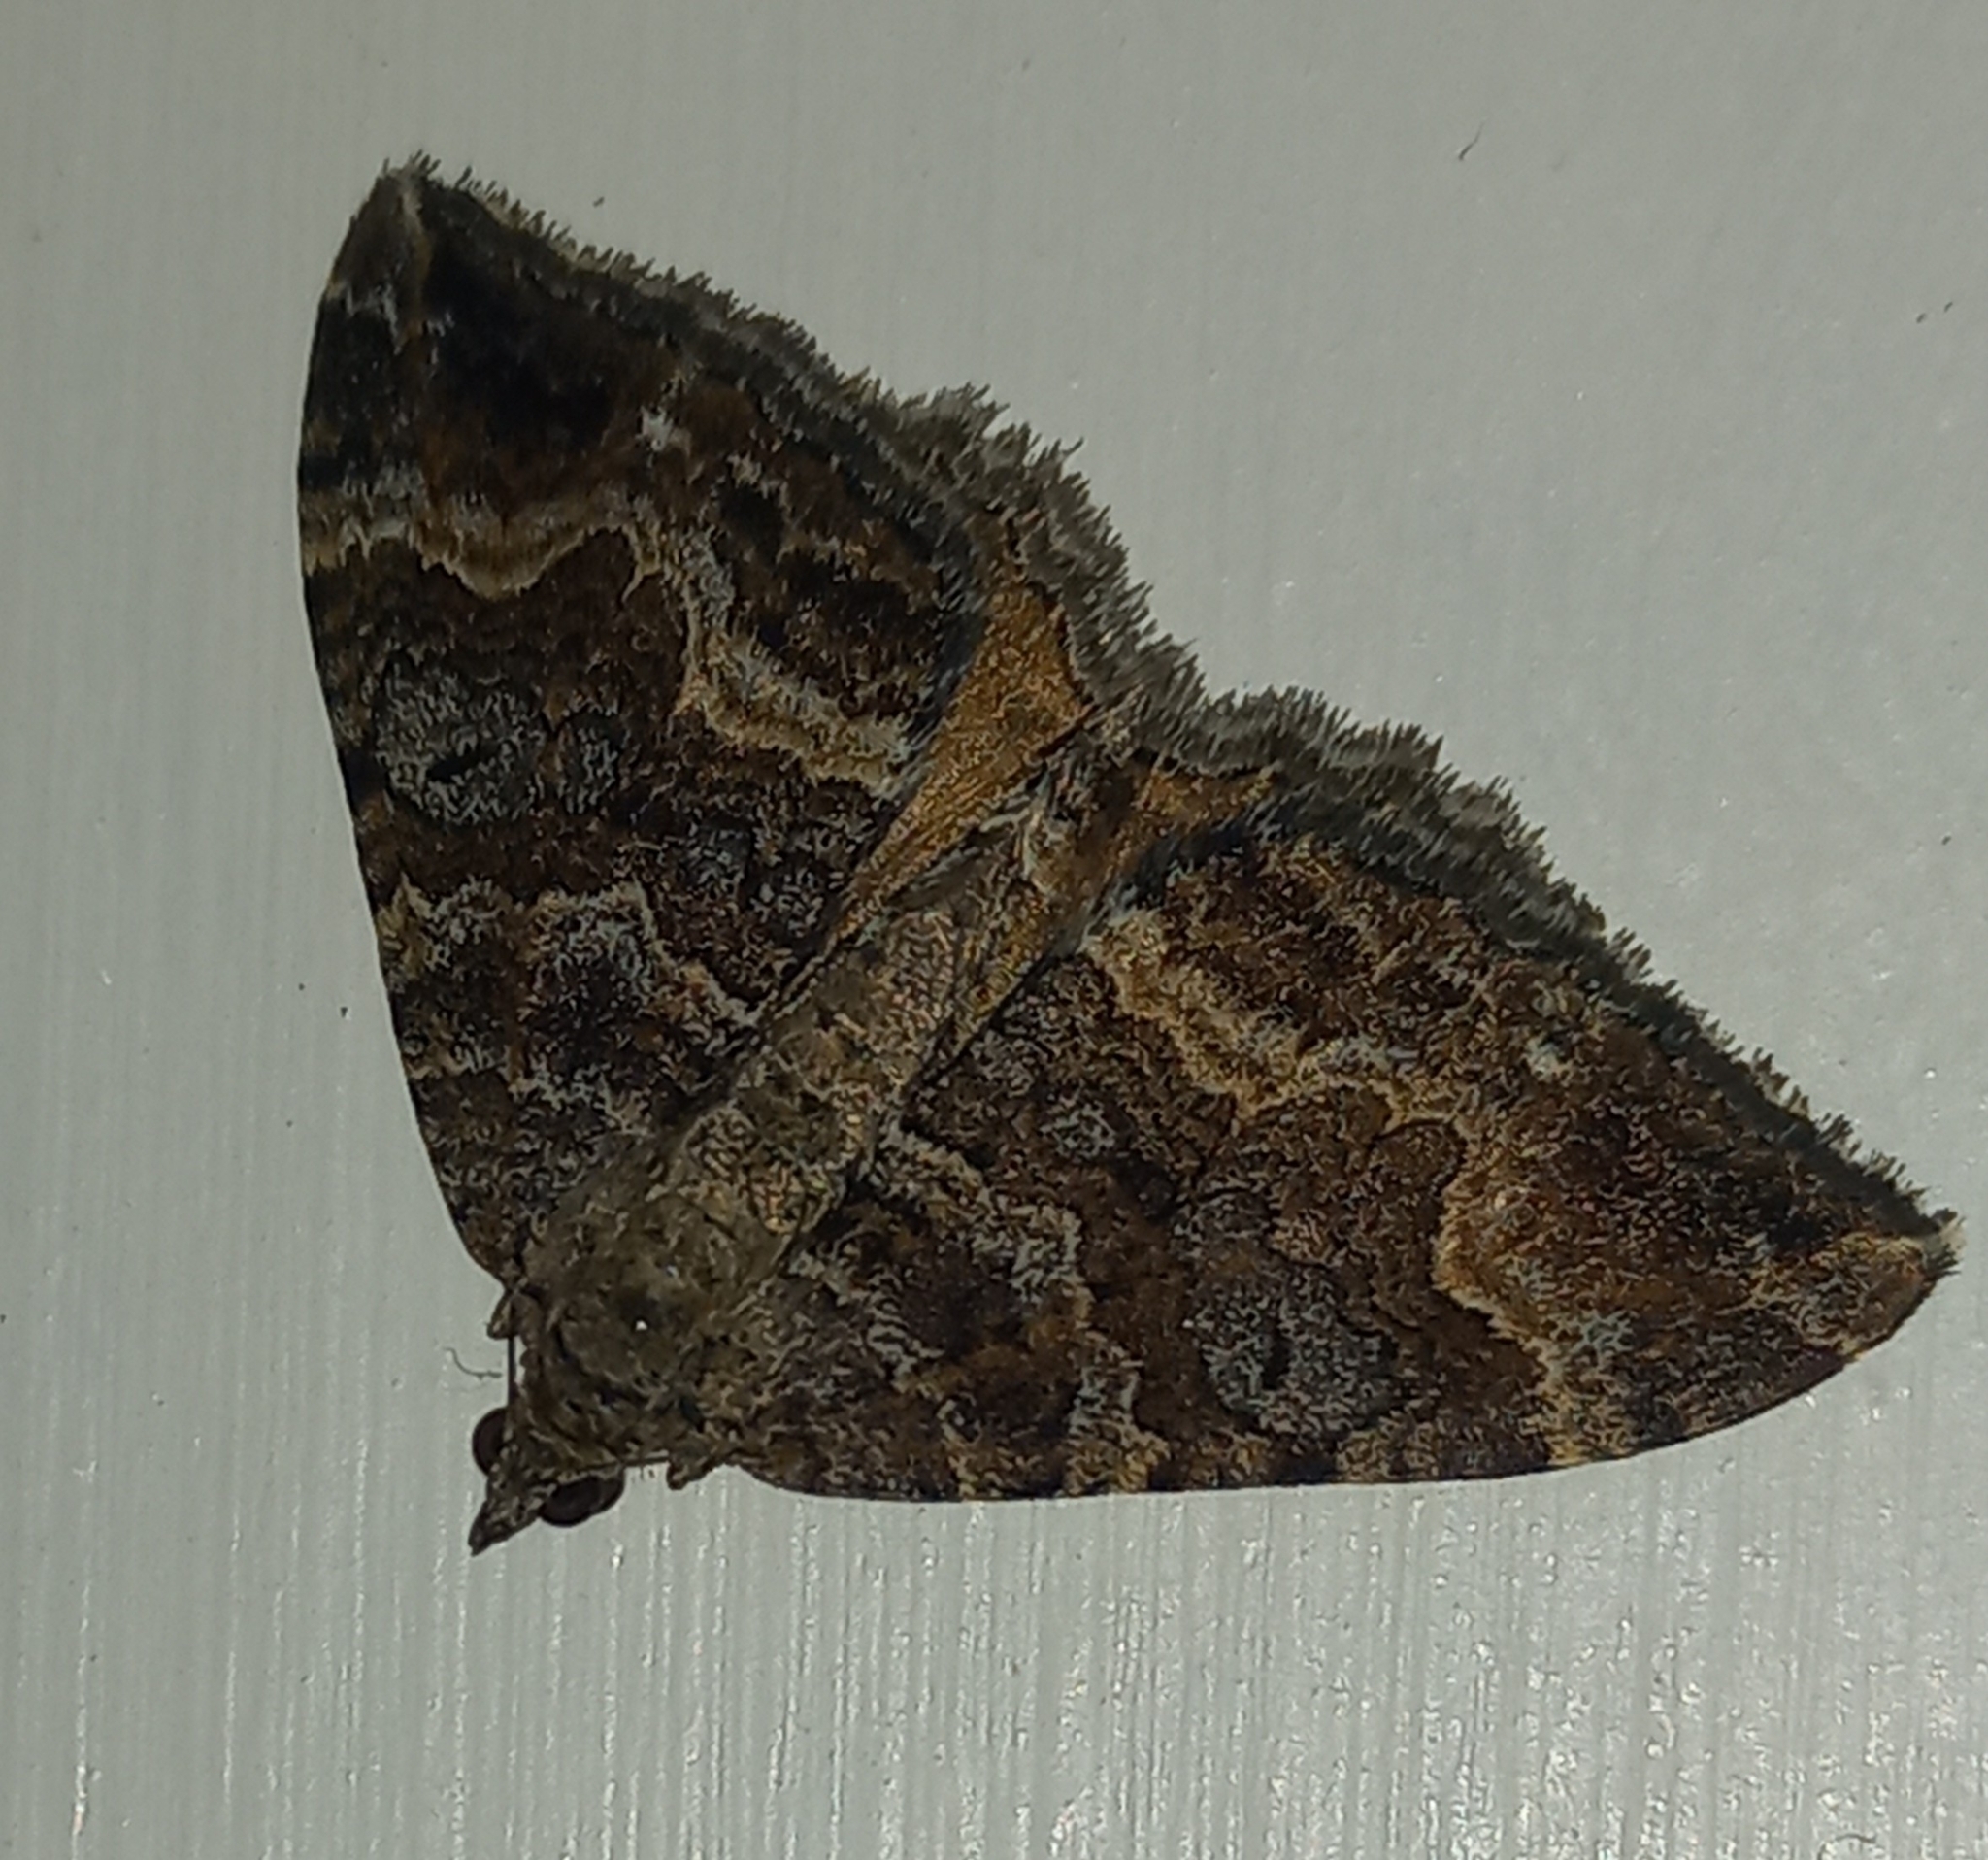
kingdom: Animalia
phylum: Arthropoda
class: Insecta
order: Lepidoptera
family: Geometridae
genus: Hydriomena
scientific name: Hydriomena deltoidata
